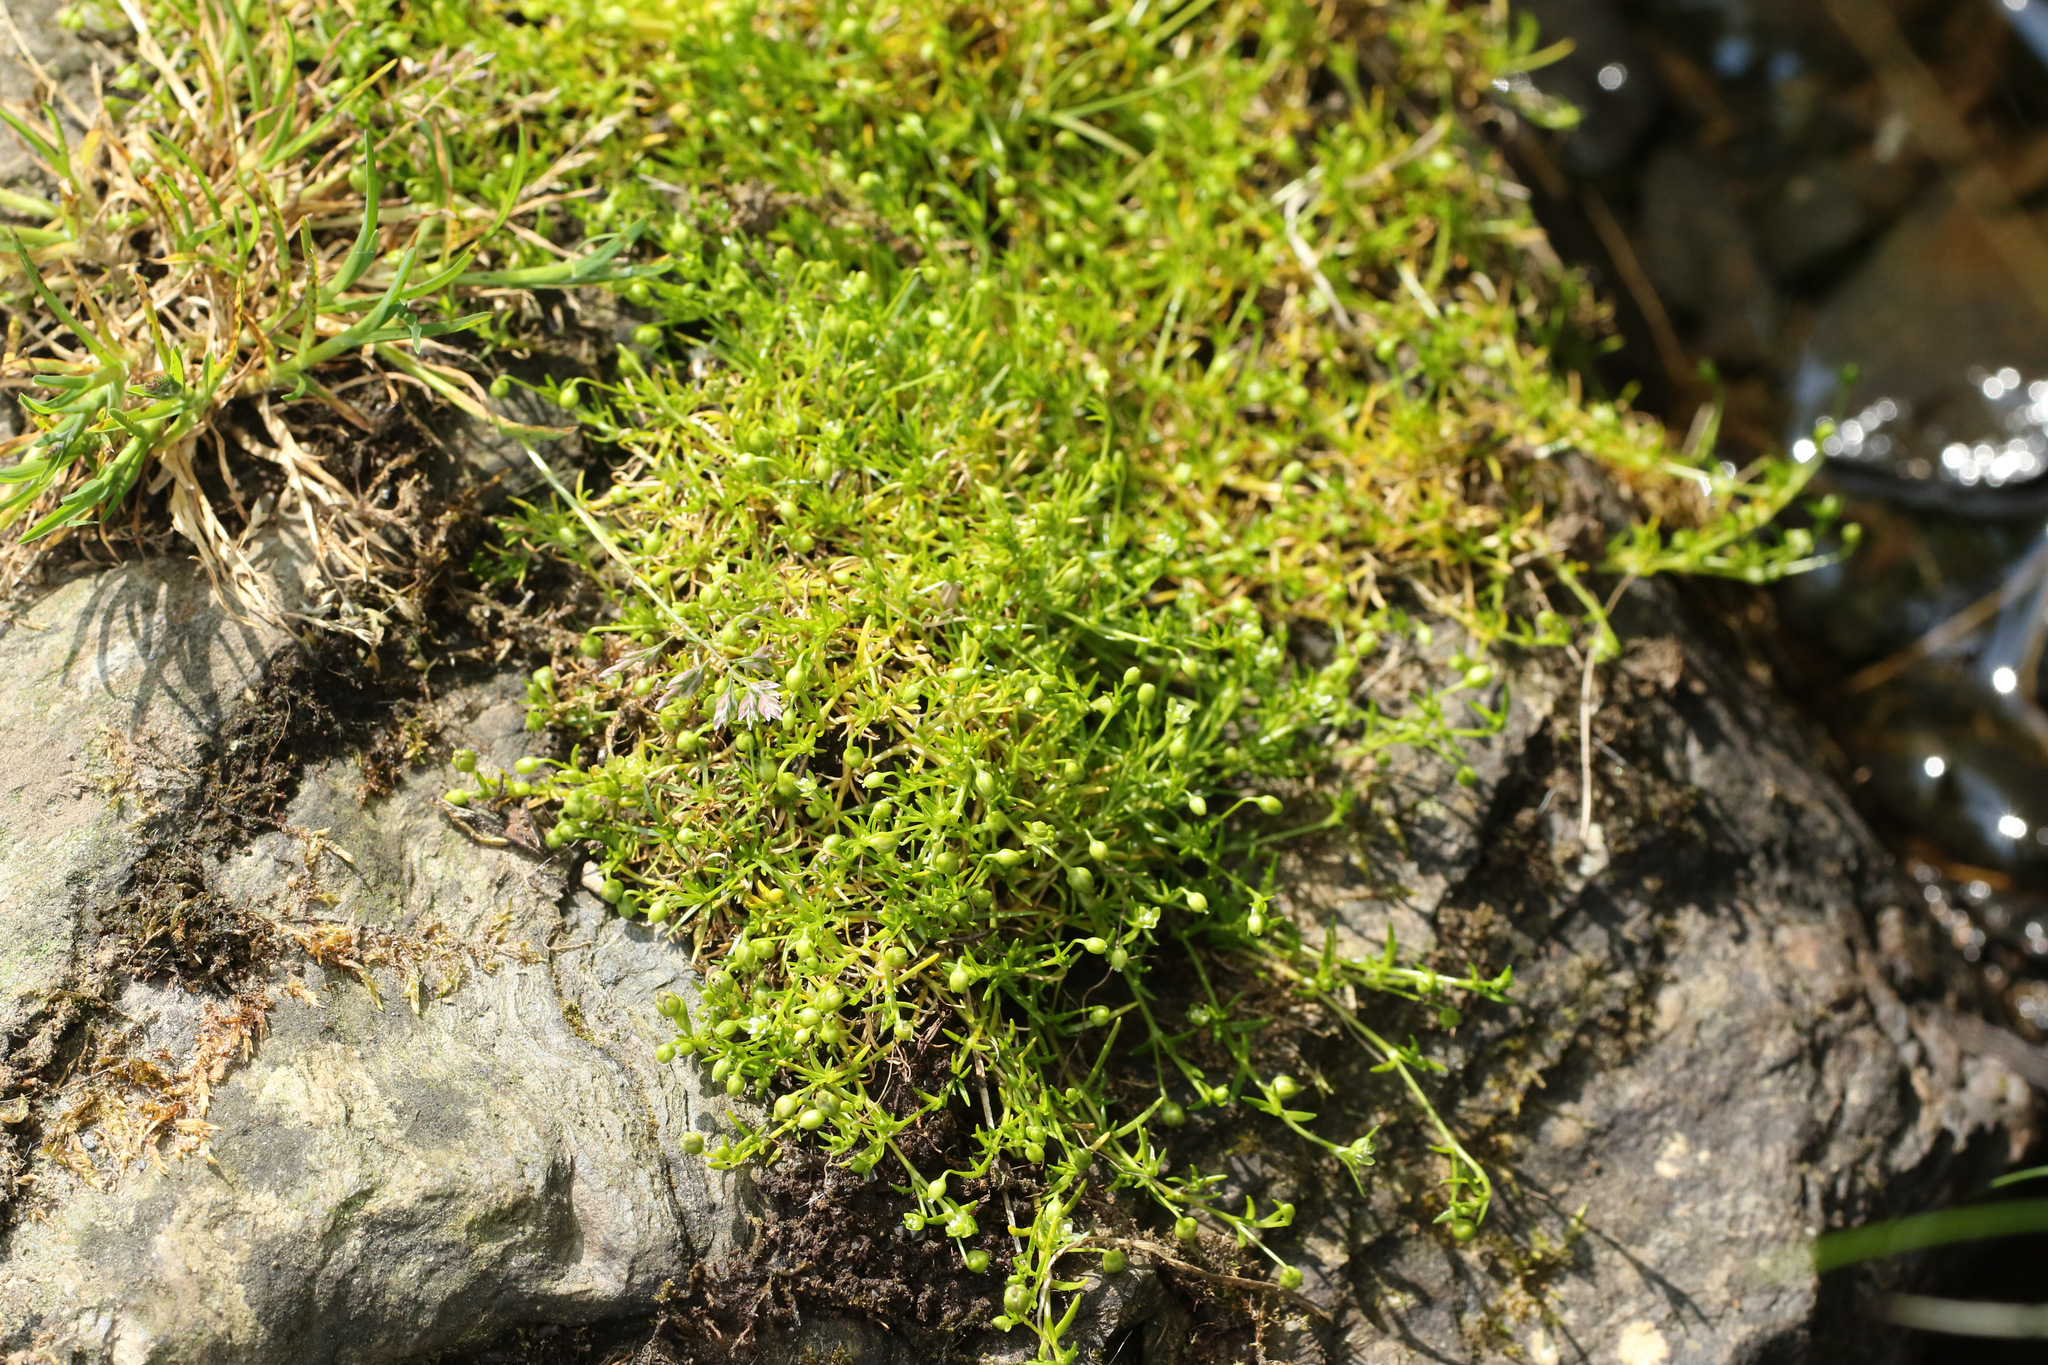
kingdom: Plantae
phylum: Tracheophyta
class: Magnoliopsida
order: Caryophyllales
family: Caryophyllaceae
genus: Sagina
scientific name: Sagina procumbens
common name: Procumbent pearlwort
